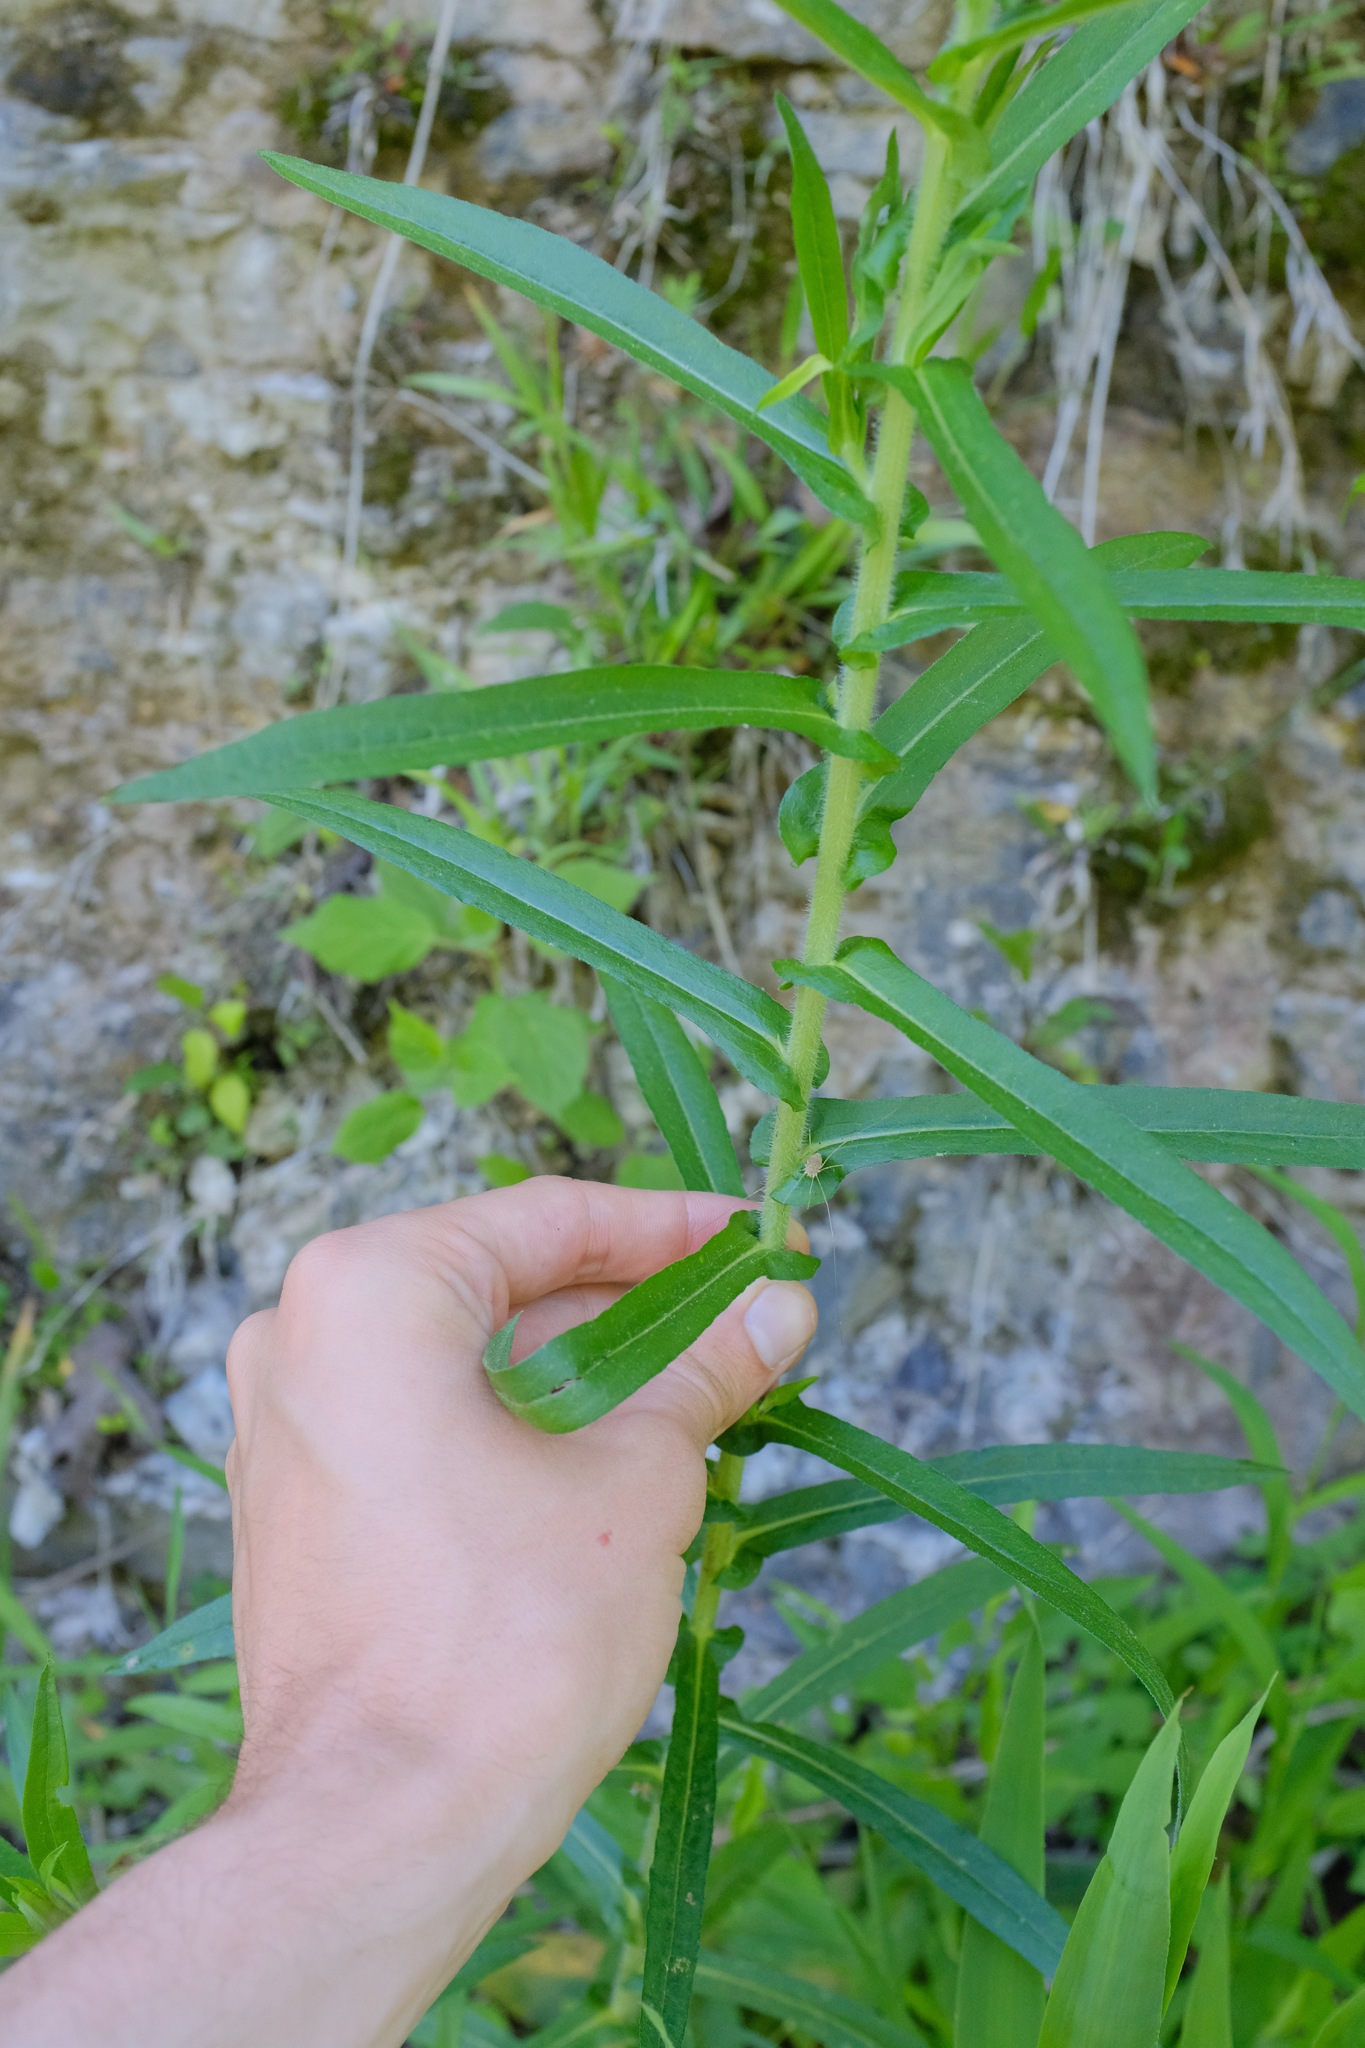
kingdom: Plantae
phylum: Tracheophyta
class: Magnoliopsida
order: Asterales
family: Asteraceae
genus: Symphyotrichum
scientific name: Symphyotrichum puniceum
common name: Bog aster
